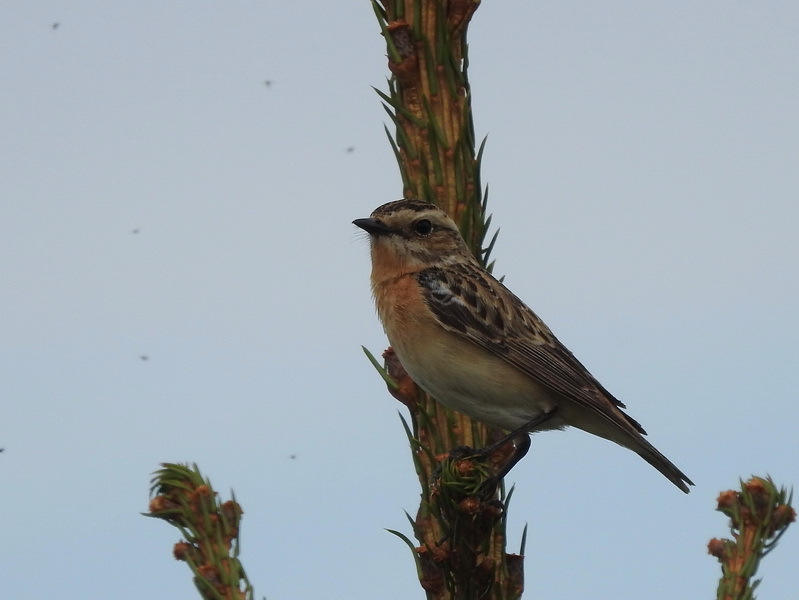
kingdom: Animalia
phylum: Chordata
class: Aves
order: Passeriformes
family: Muscicapidae
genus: Saxicola
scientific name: Saxicola rubetra
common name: Whinchat
